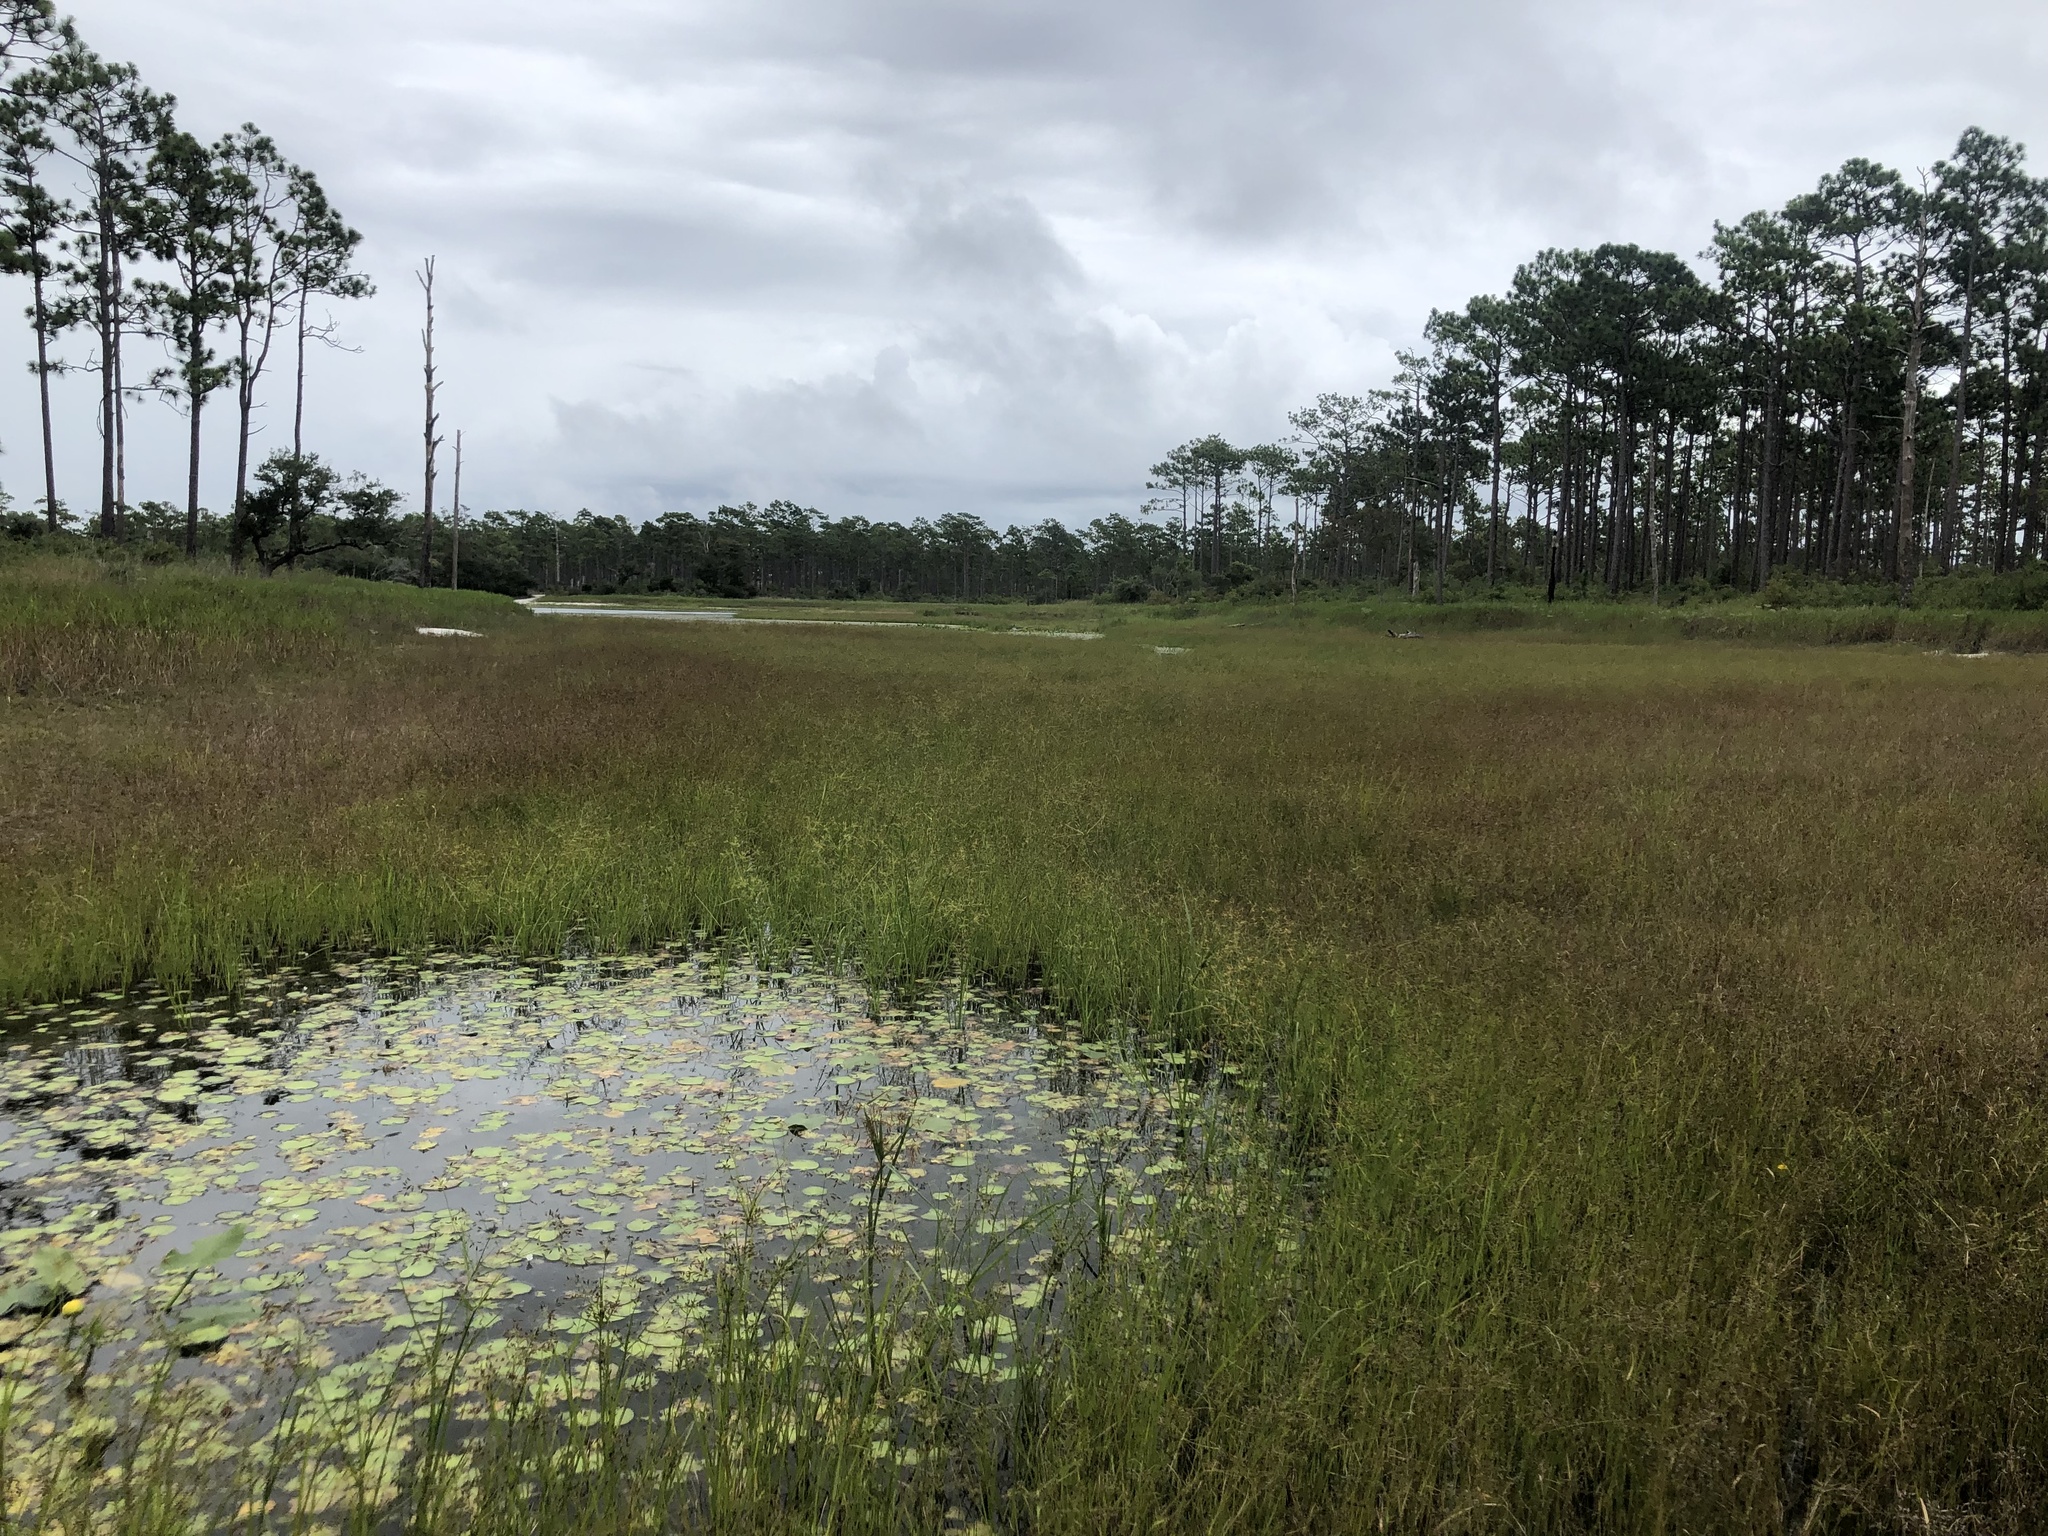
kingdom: Plantae
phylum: Tracheophyta
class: Liliopsida
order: Poales
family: Cyperaceae
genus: Rhynchospora
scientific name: Rhynchospora scirpoides
